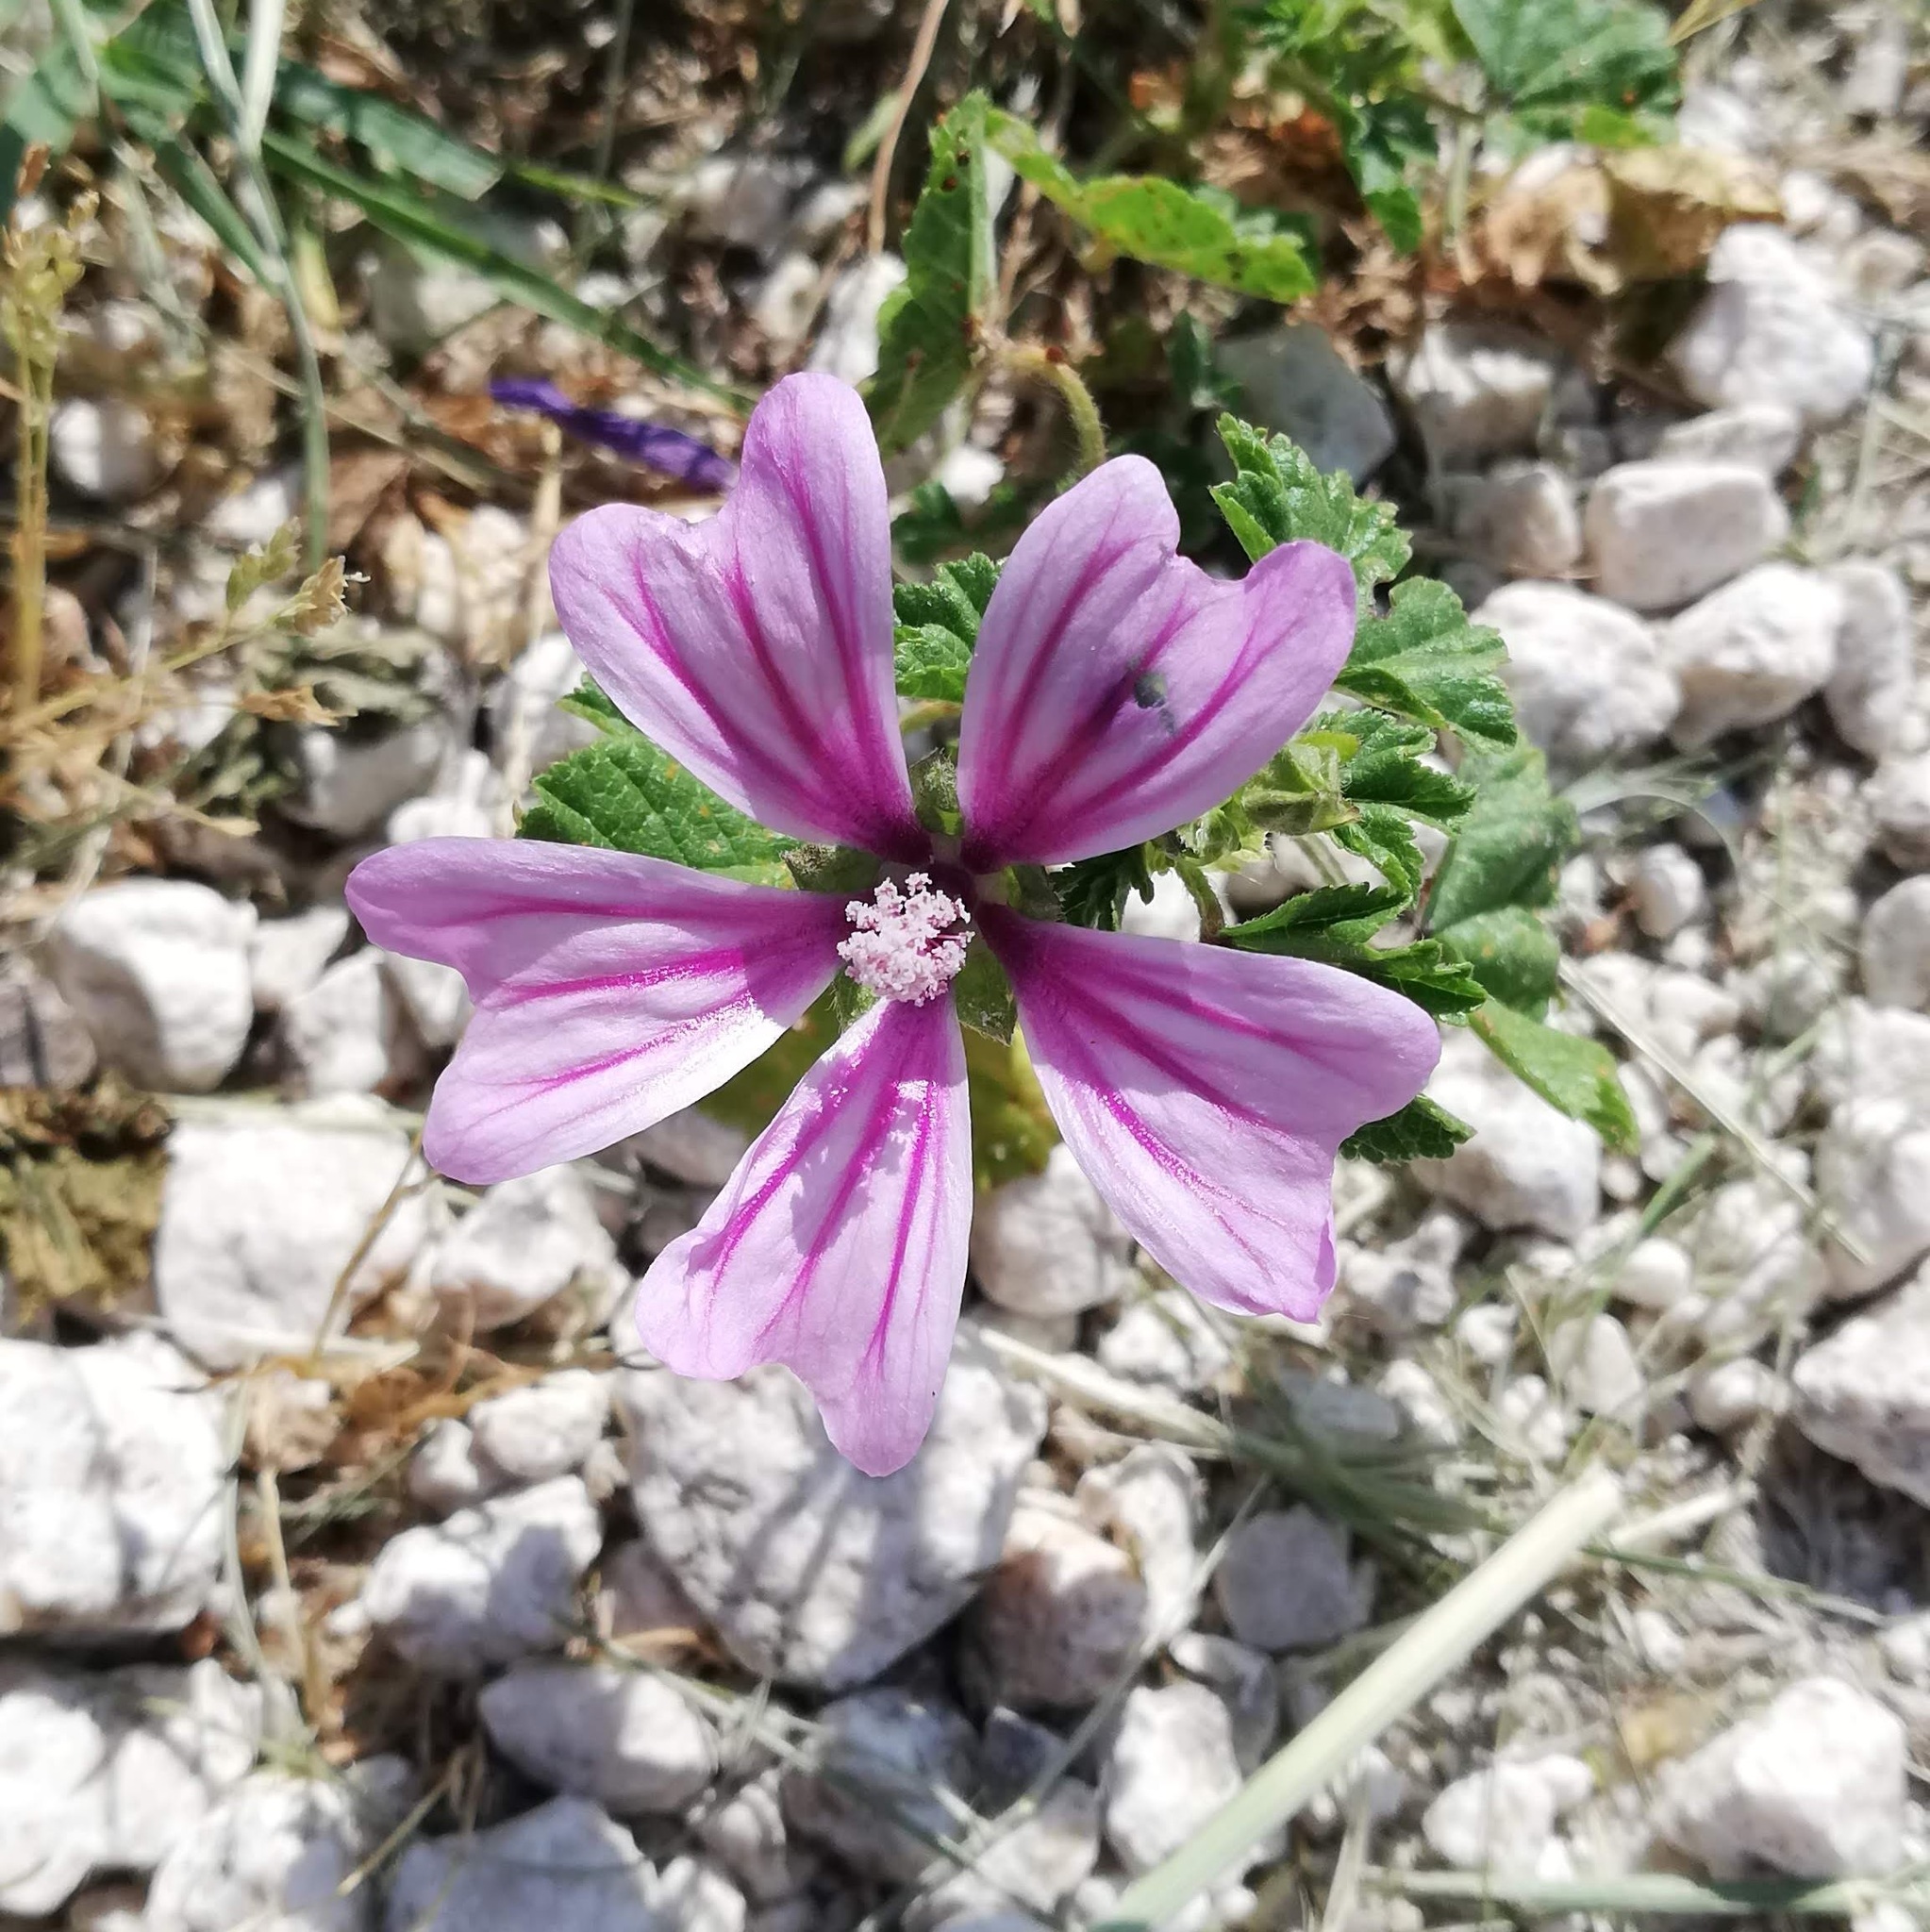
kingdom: Plantae
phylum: Tracheophyta
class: Magnoliopsida
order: Malvales
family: Malvaceae
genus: Malva
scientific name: Malva sylvestris
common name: Common mallow
